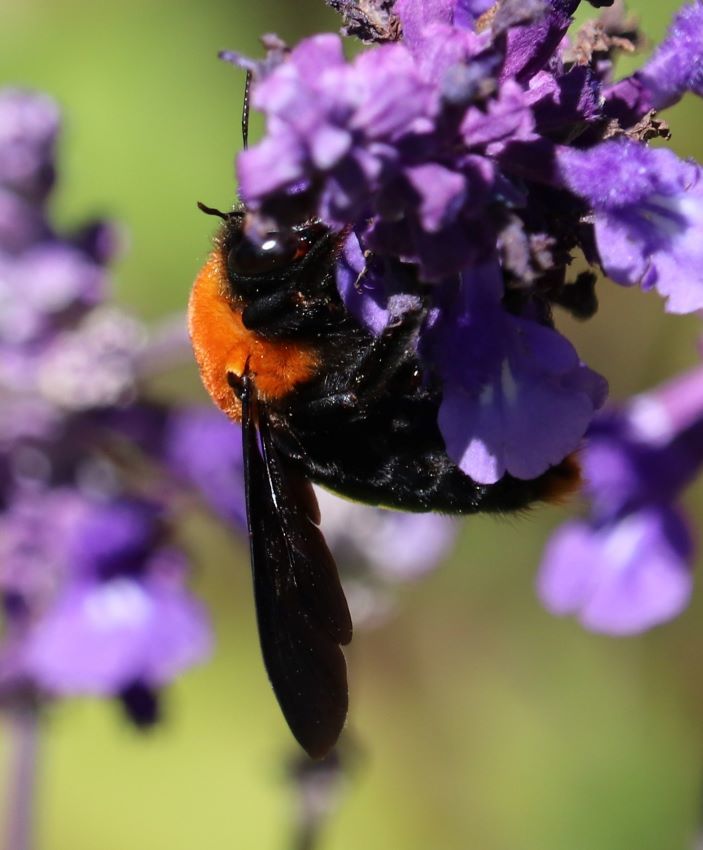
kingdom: Animalia
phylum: Arthropoda
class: Insecta
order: Hymenoptera
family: Apidae
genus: Xylocopa
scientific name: Xylocopa flavorufa
